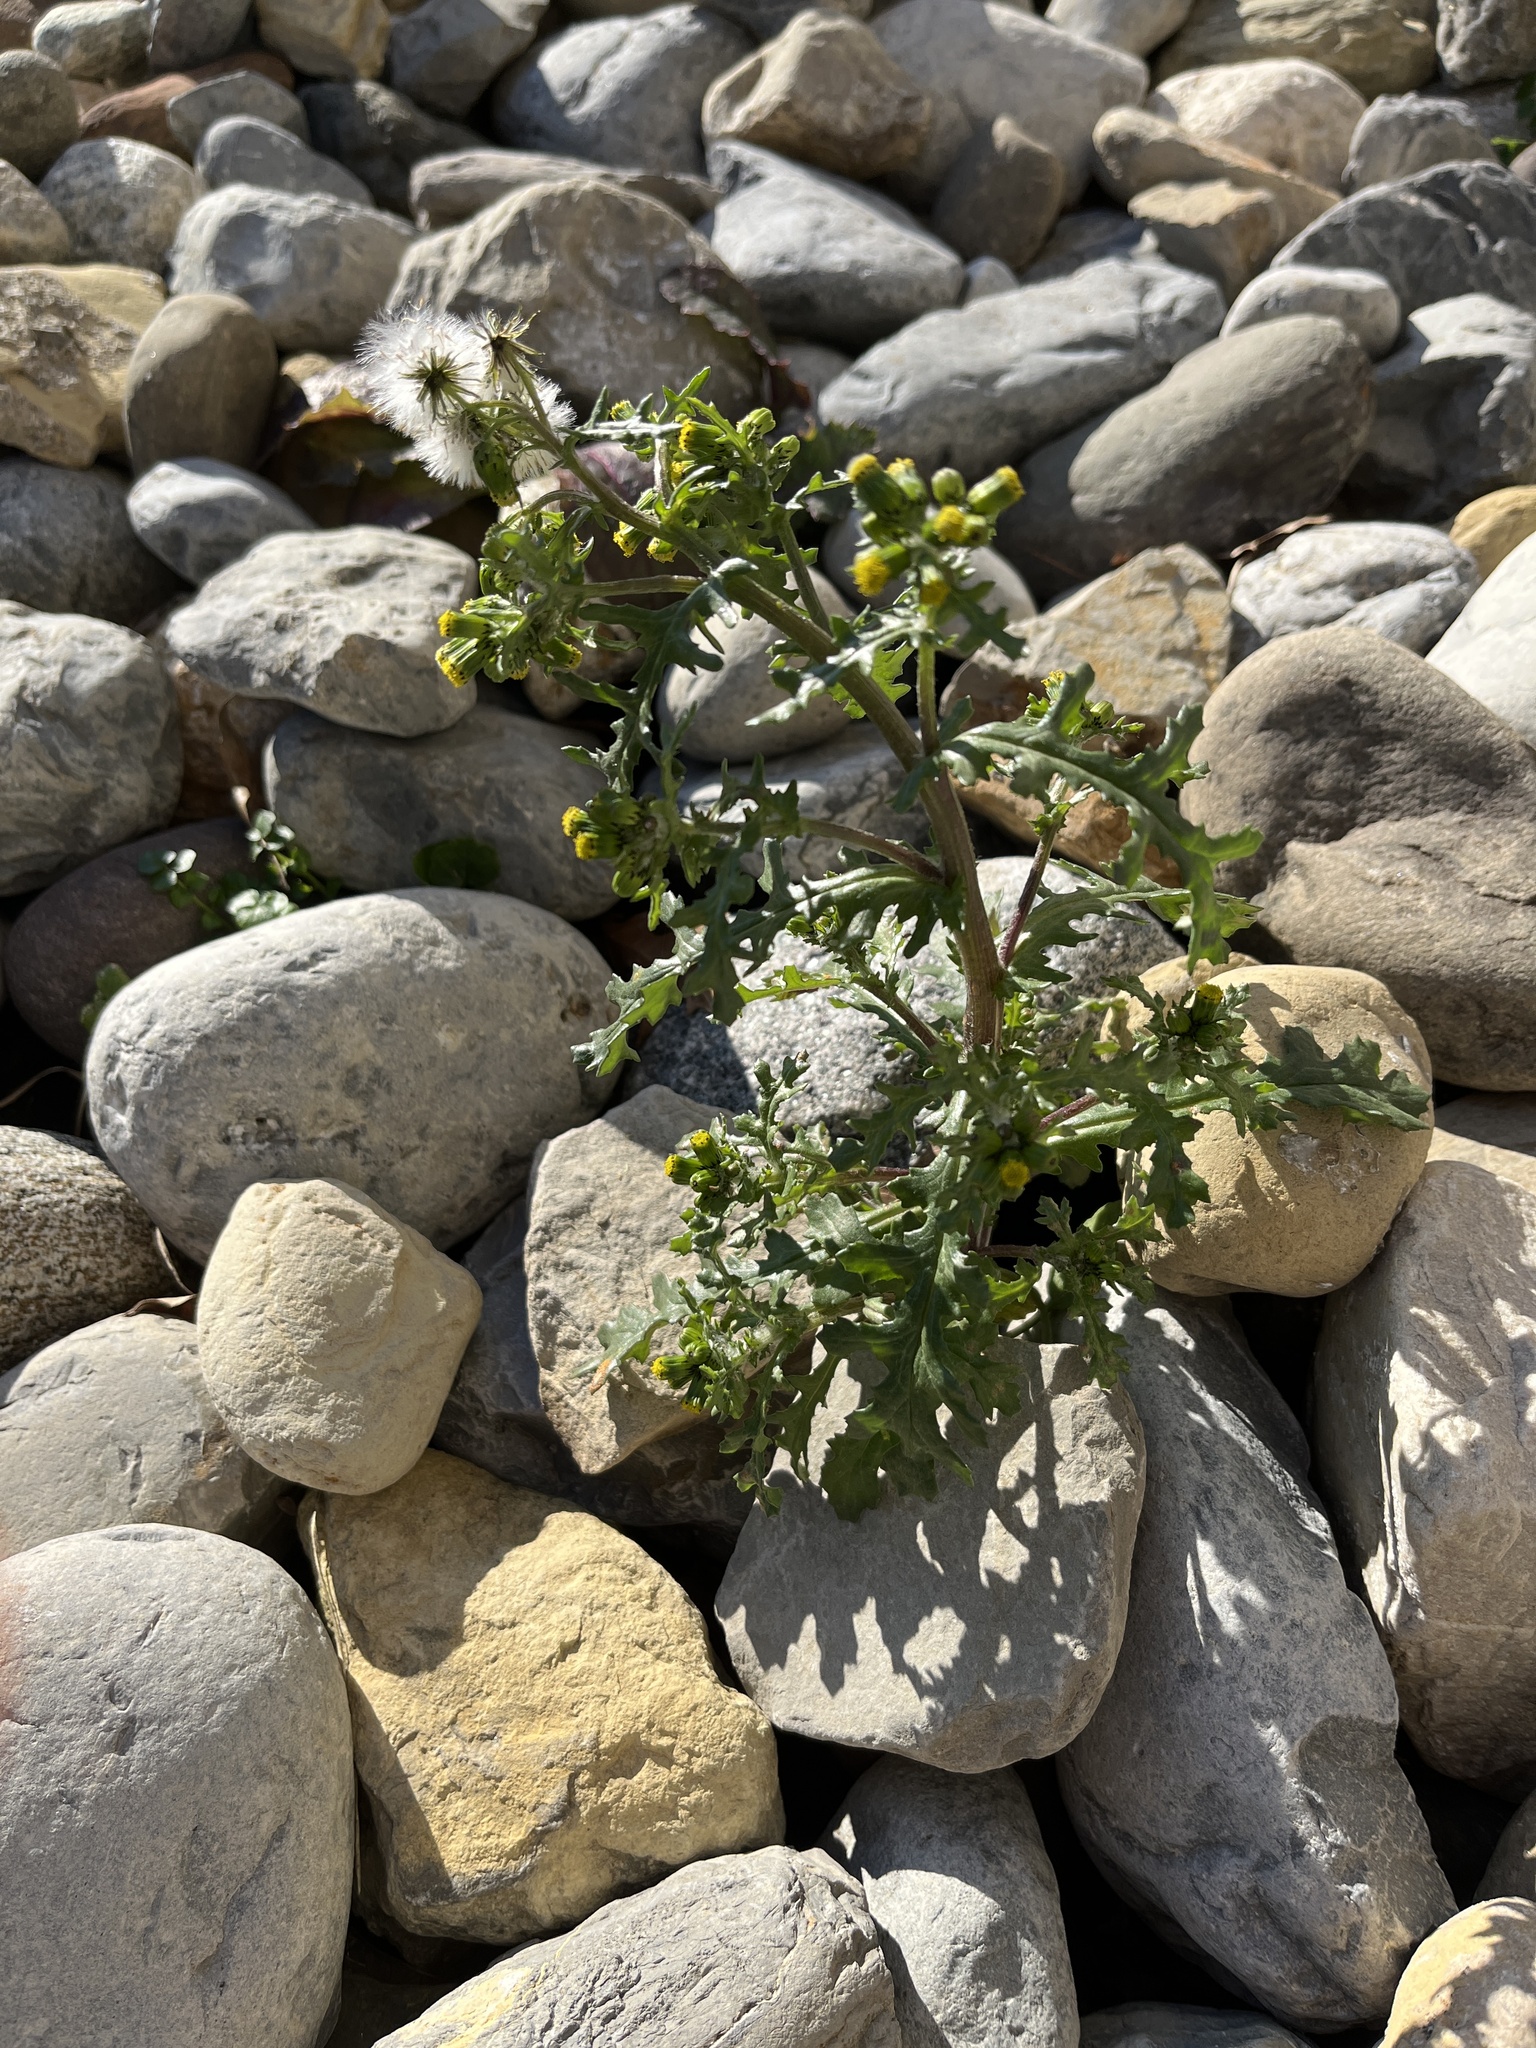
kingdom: Plantae
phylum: Tracheophyta
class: Magnoliopsida
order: Asterales
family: Asteraceae
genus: Senecio
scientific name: Senecio vulgaris
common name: Old-man-in-the-spring
